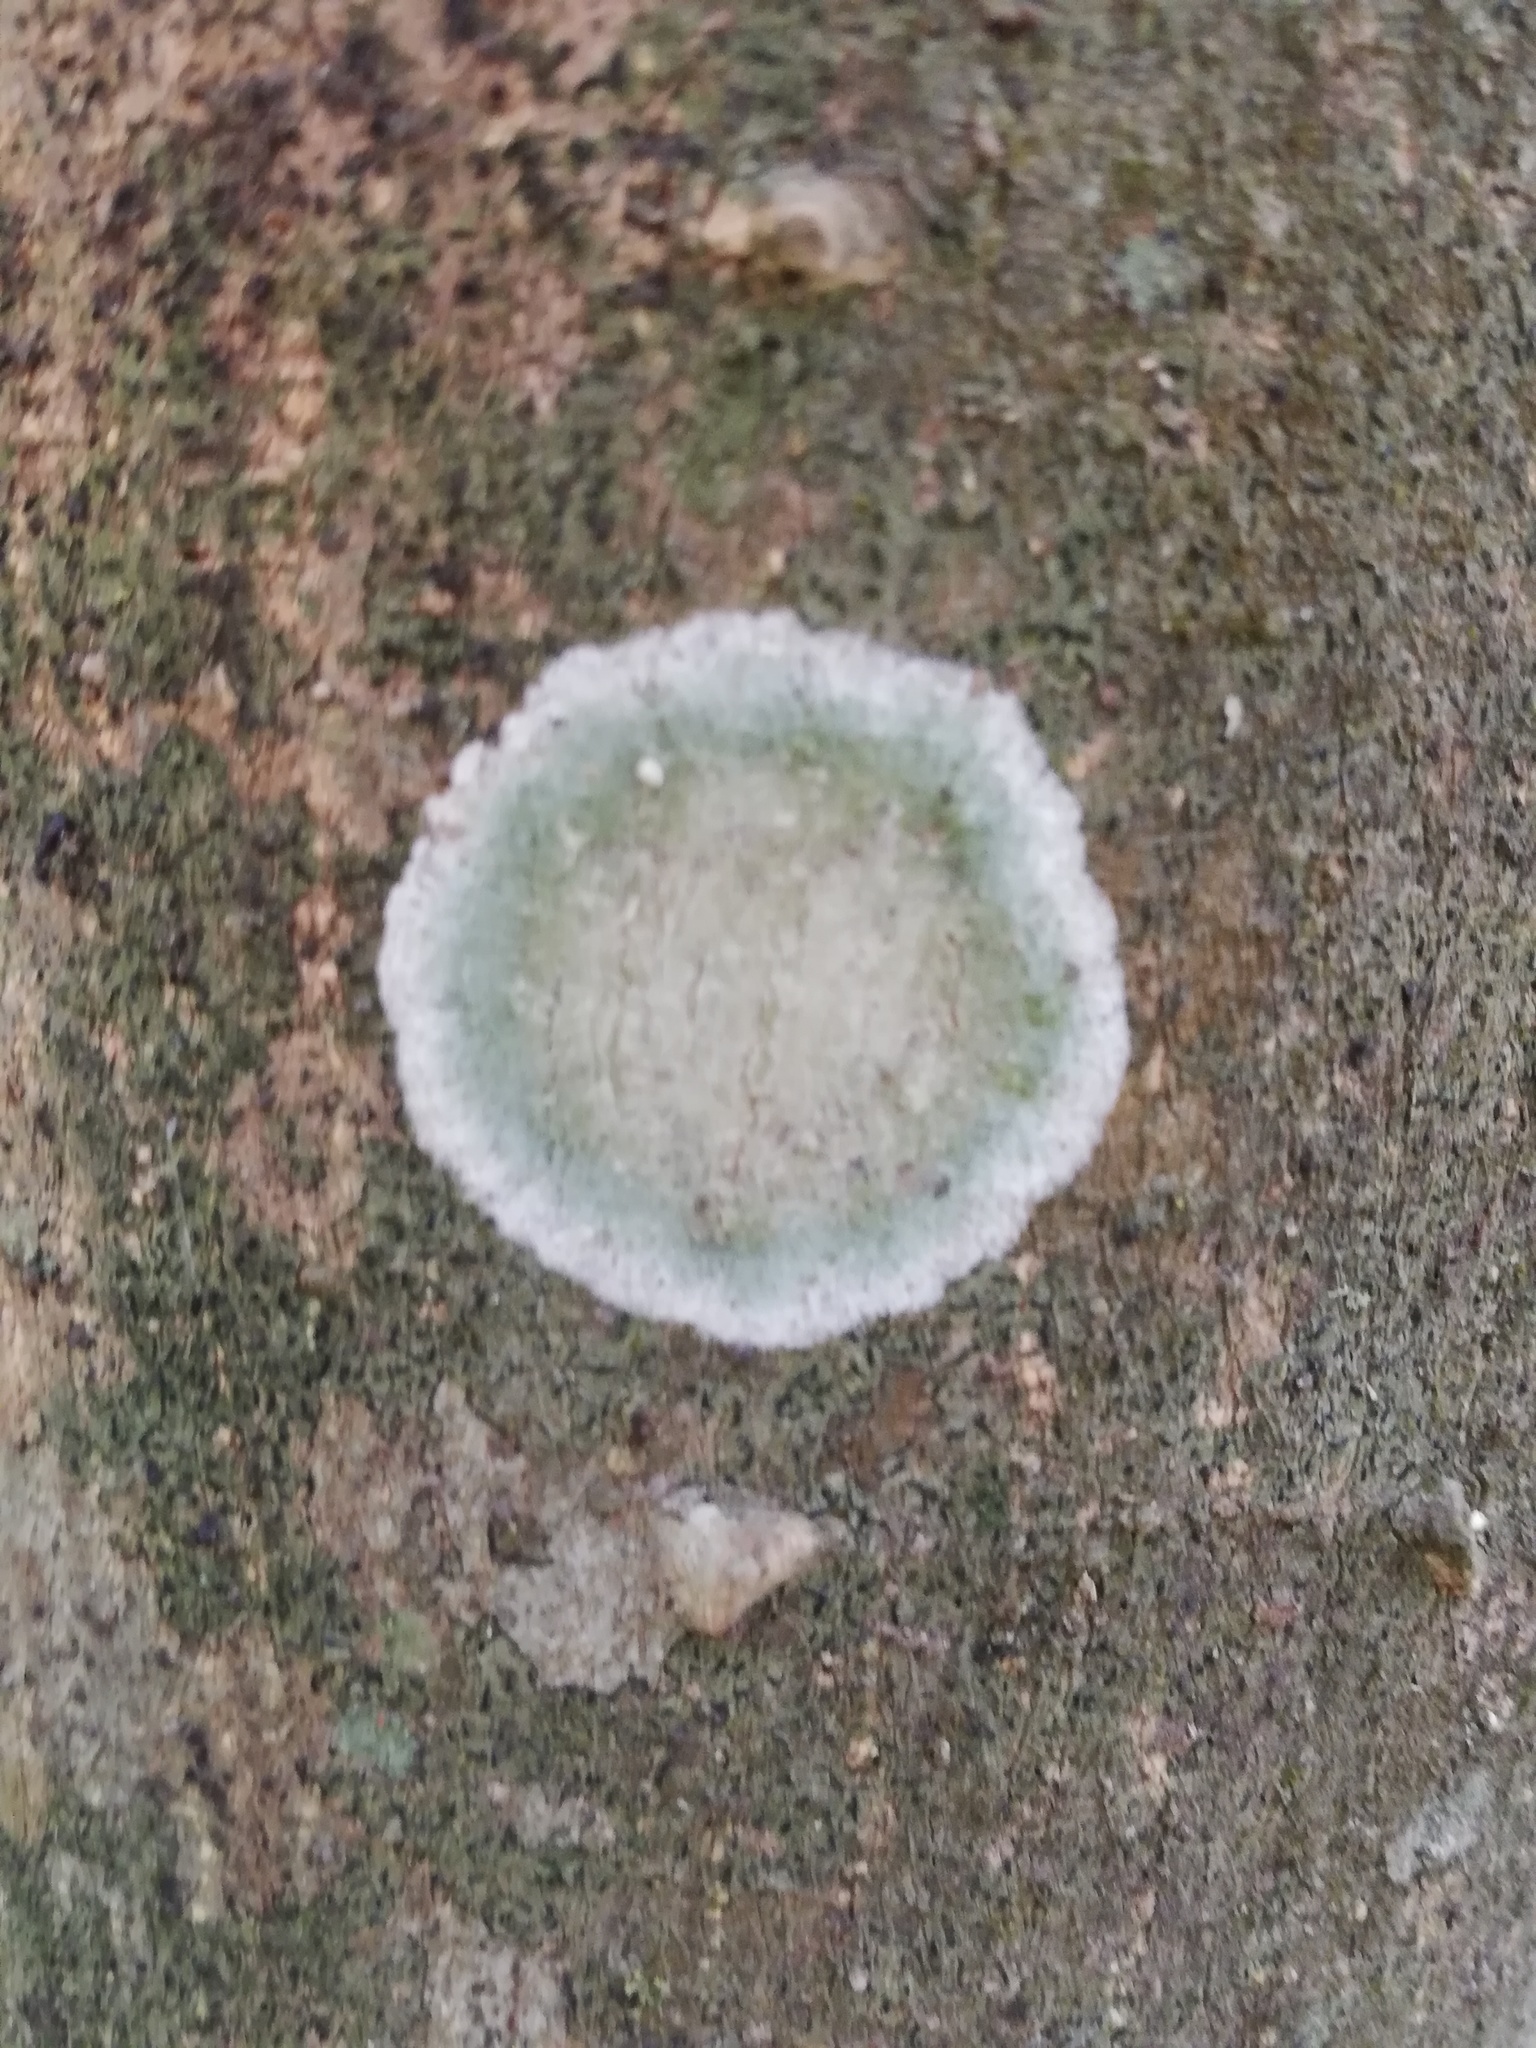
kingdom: Fungi
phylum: Ascomycota
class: Lecanoromycetes
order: Ostropales
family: Phlyctidaceae
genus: Phlyctis
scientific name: Phlyctis argena
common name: Whitewash lichen
